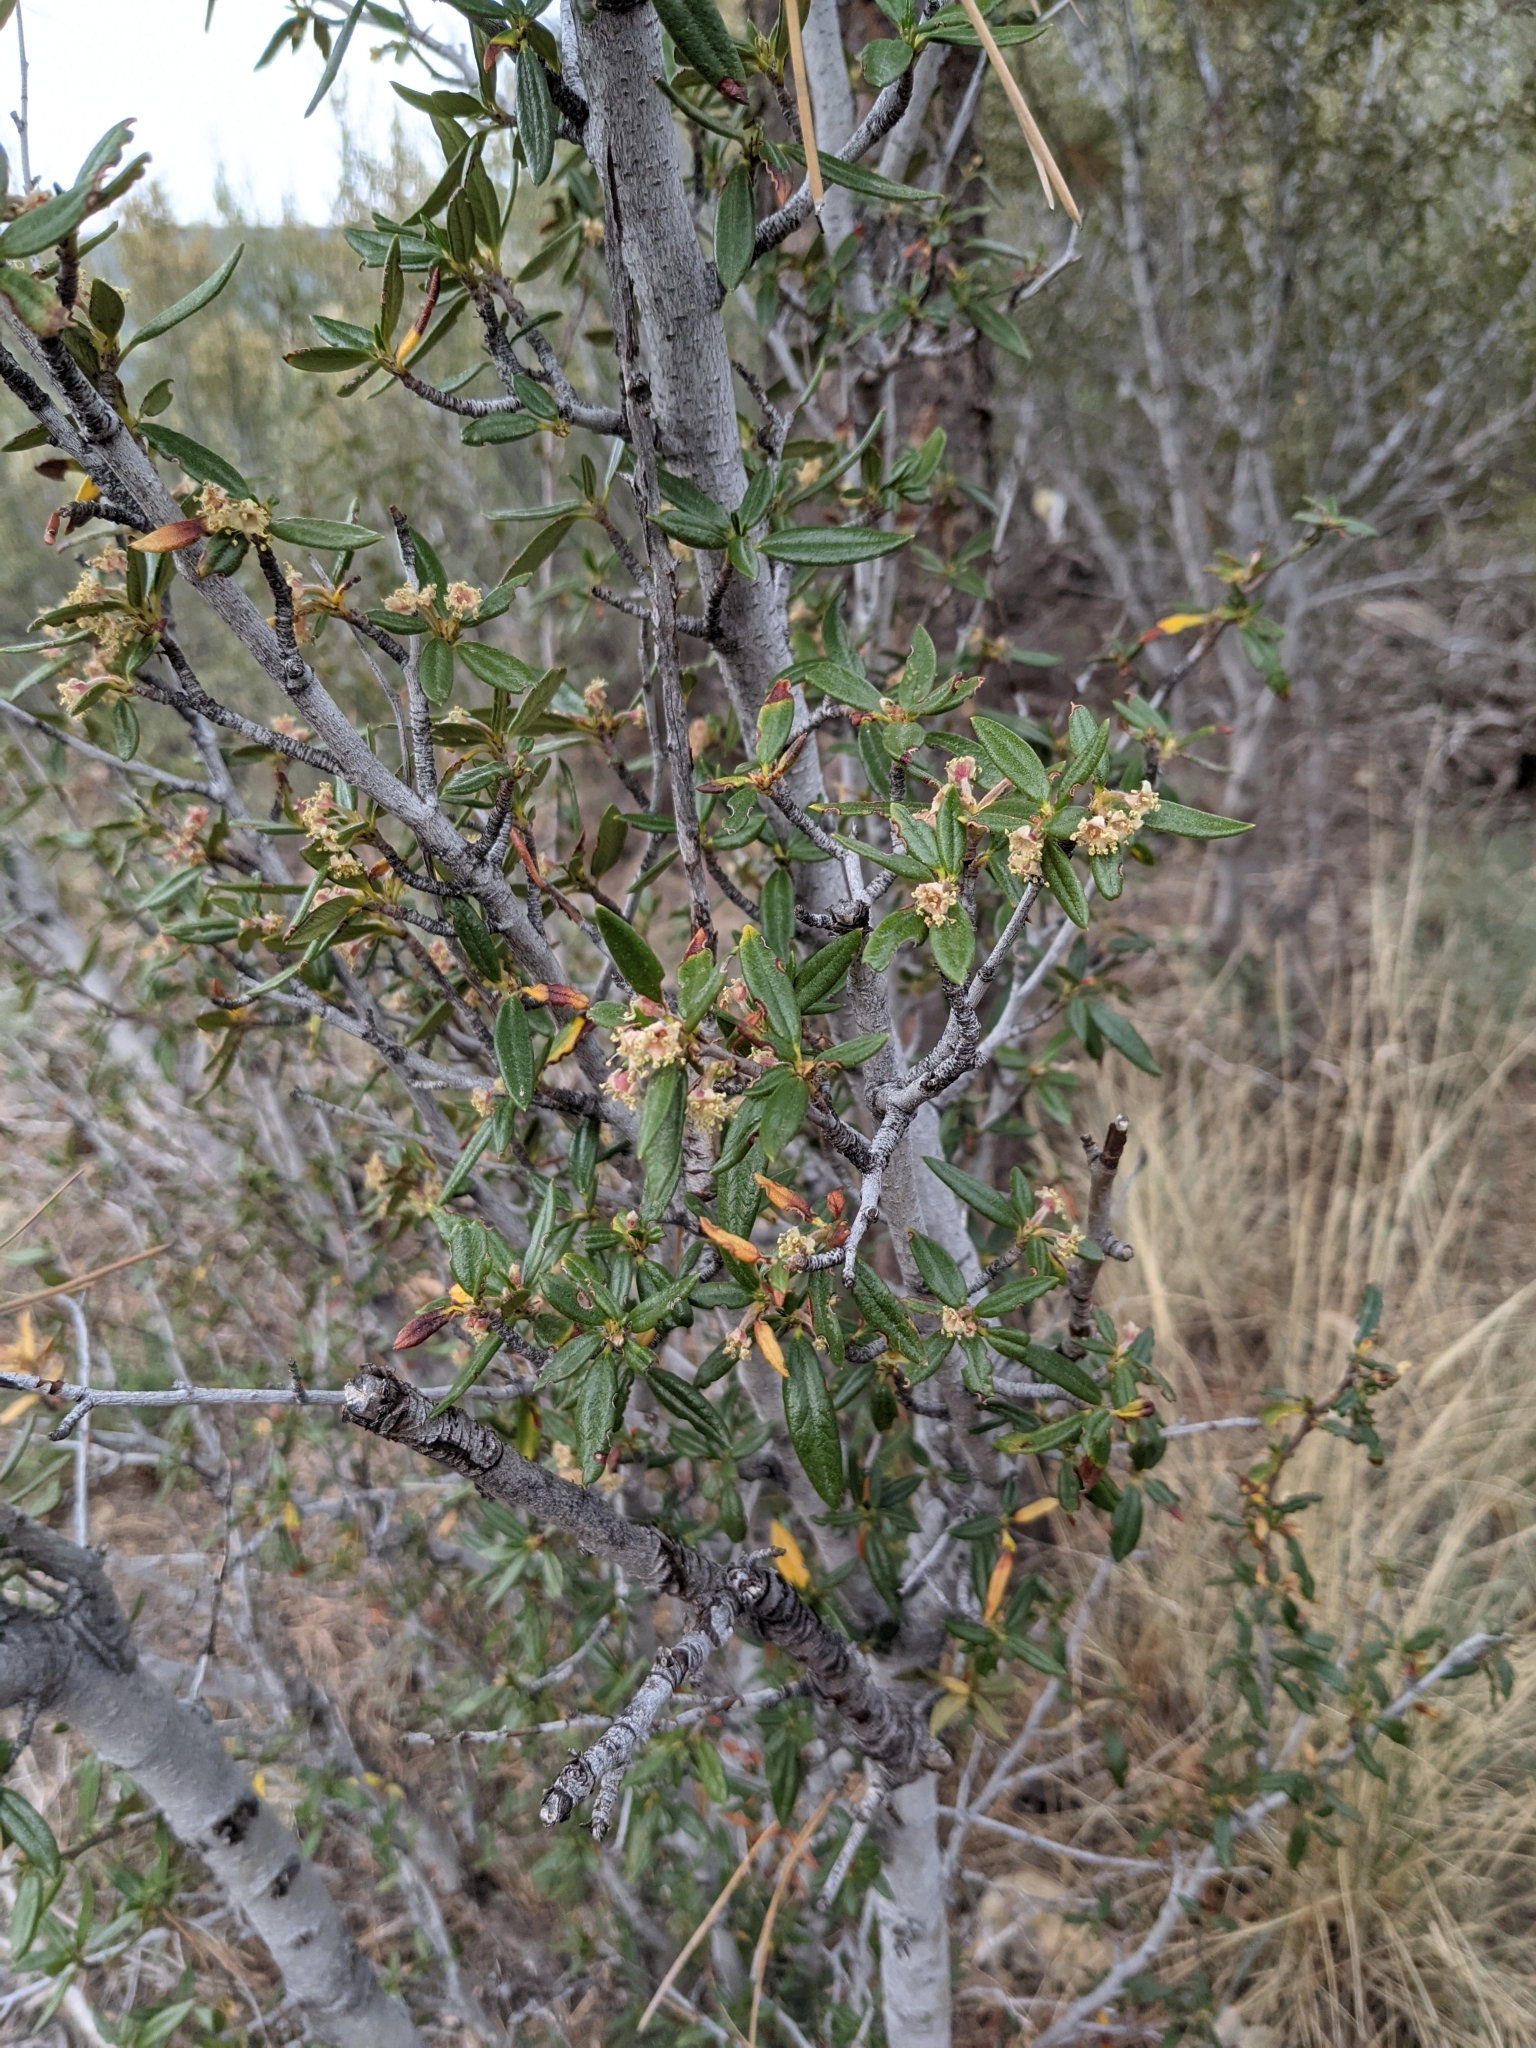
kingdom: Plantae
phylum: Tracheophyta
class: Magnoliopsida
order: Rosales
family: Rosaceae
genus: Cercocarpus
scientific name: Cercocarpus ledifolius
